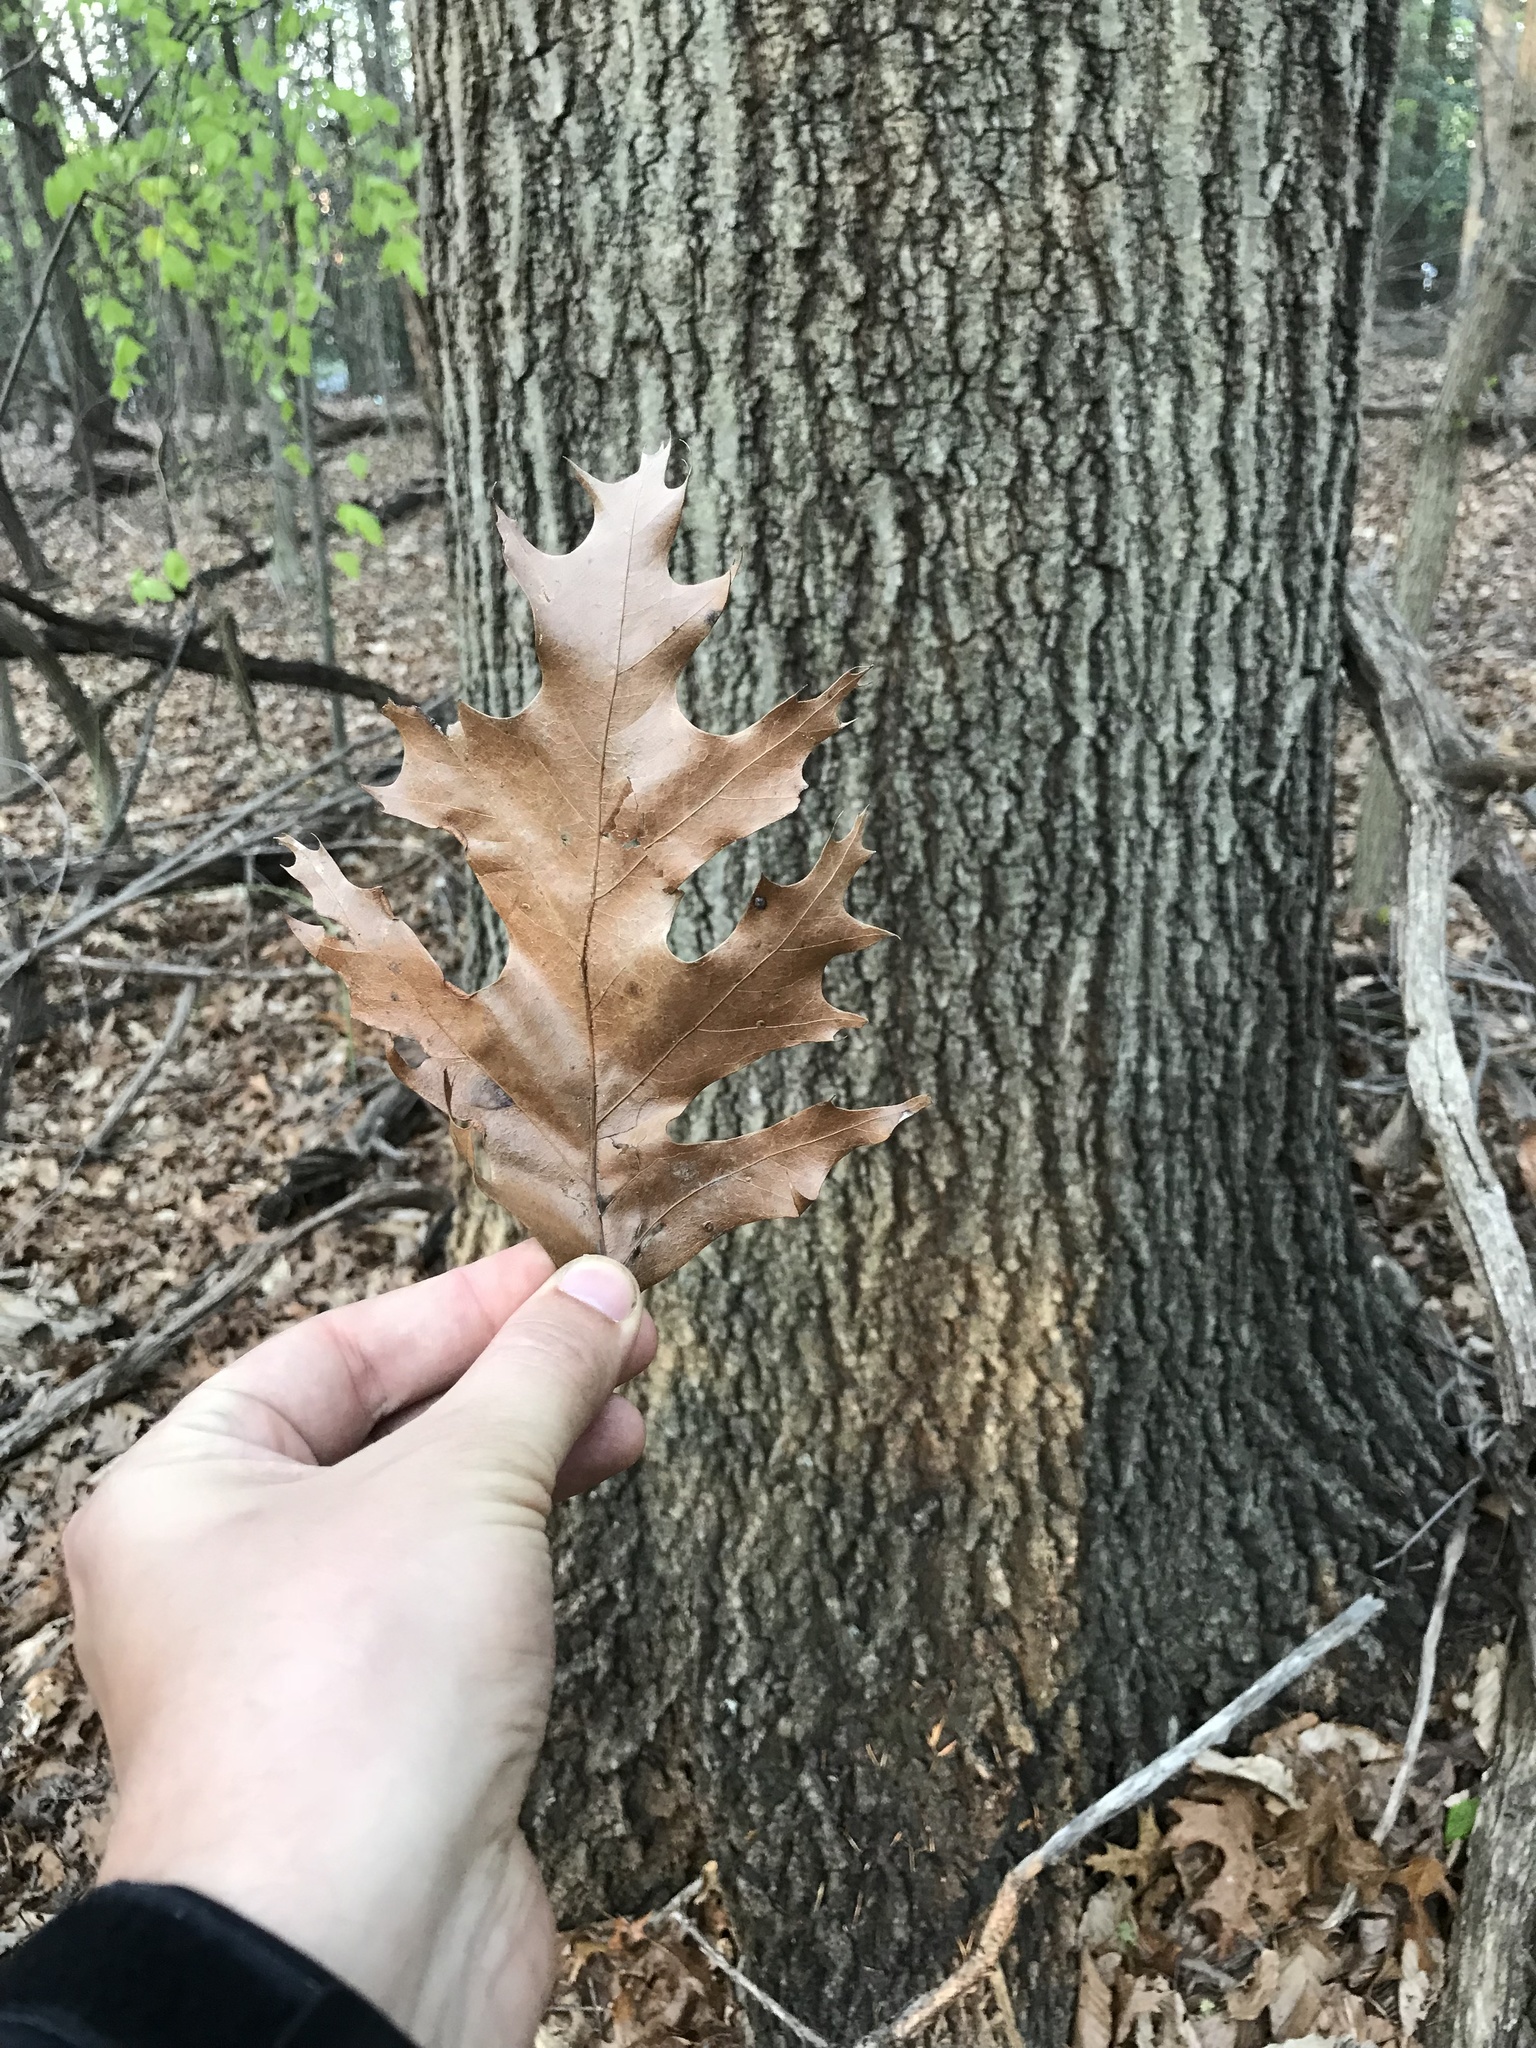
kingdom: Plantae
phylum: Tracheophyta
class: Magnoliopsida
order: Fagales
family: Fagaceae
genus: Quercus
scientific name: Quercus rubra
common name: Red oak
